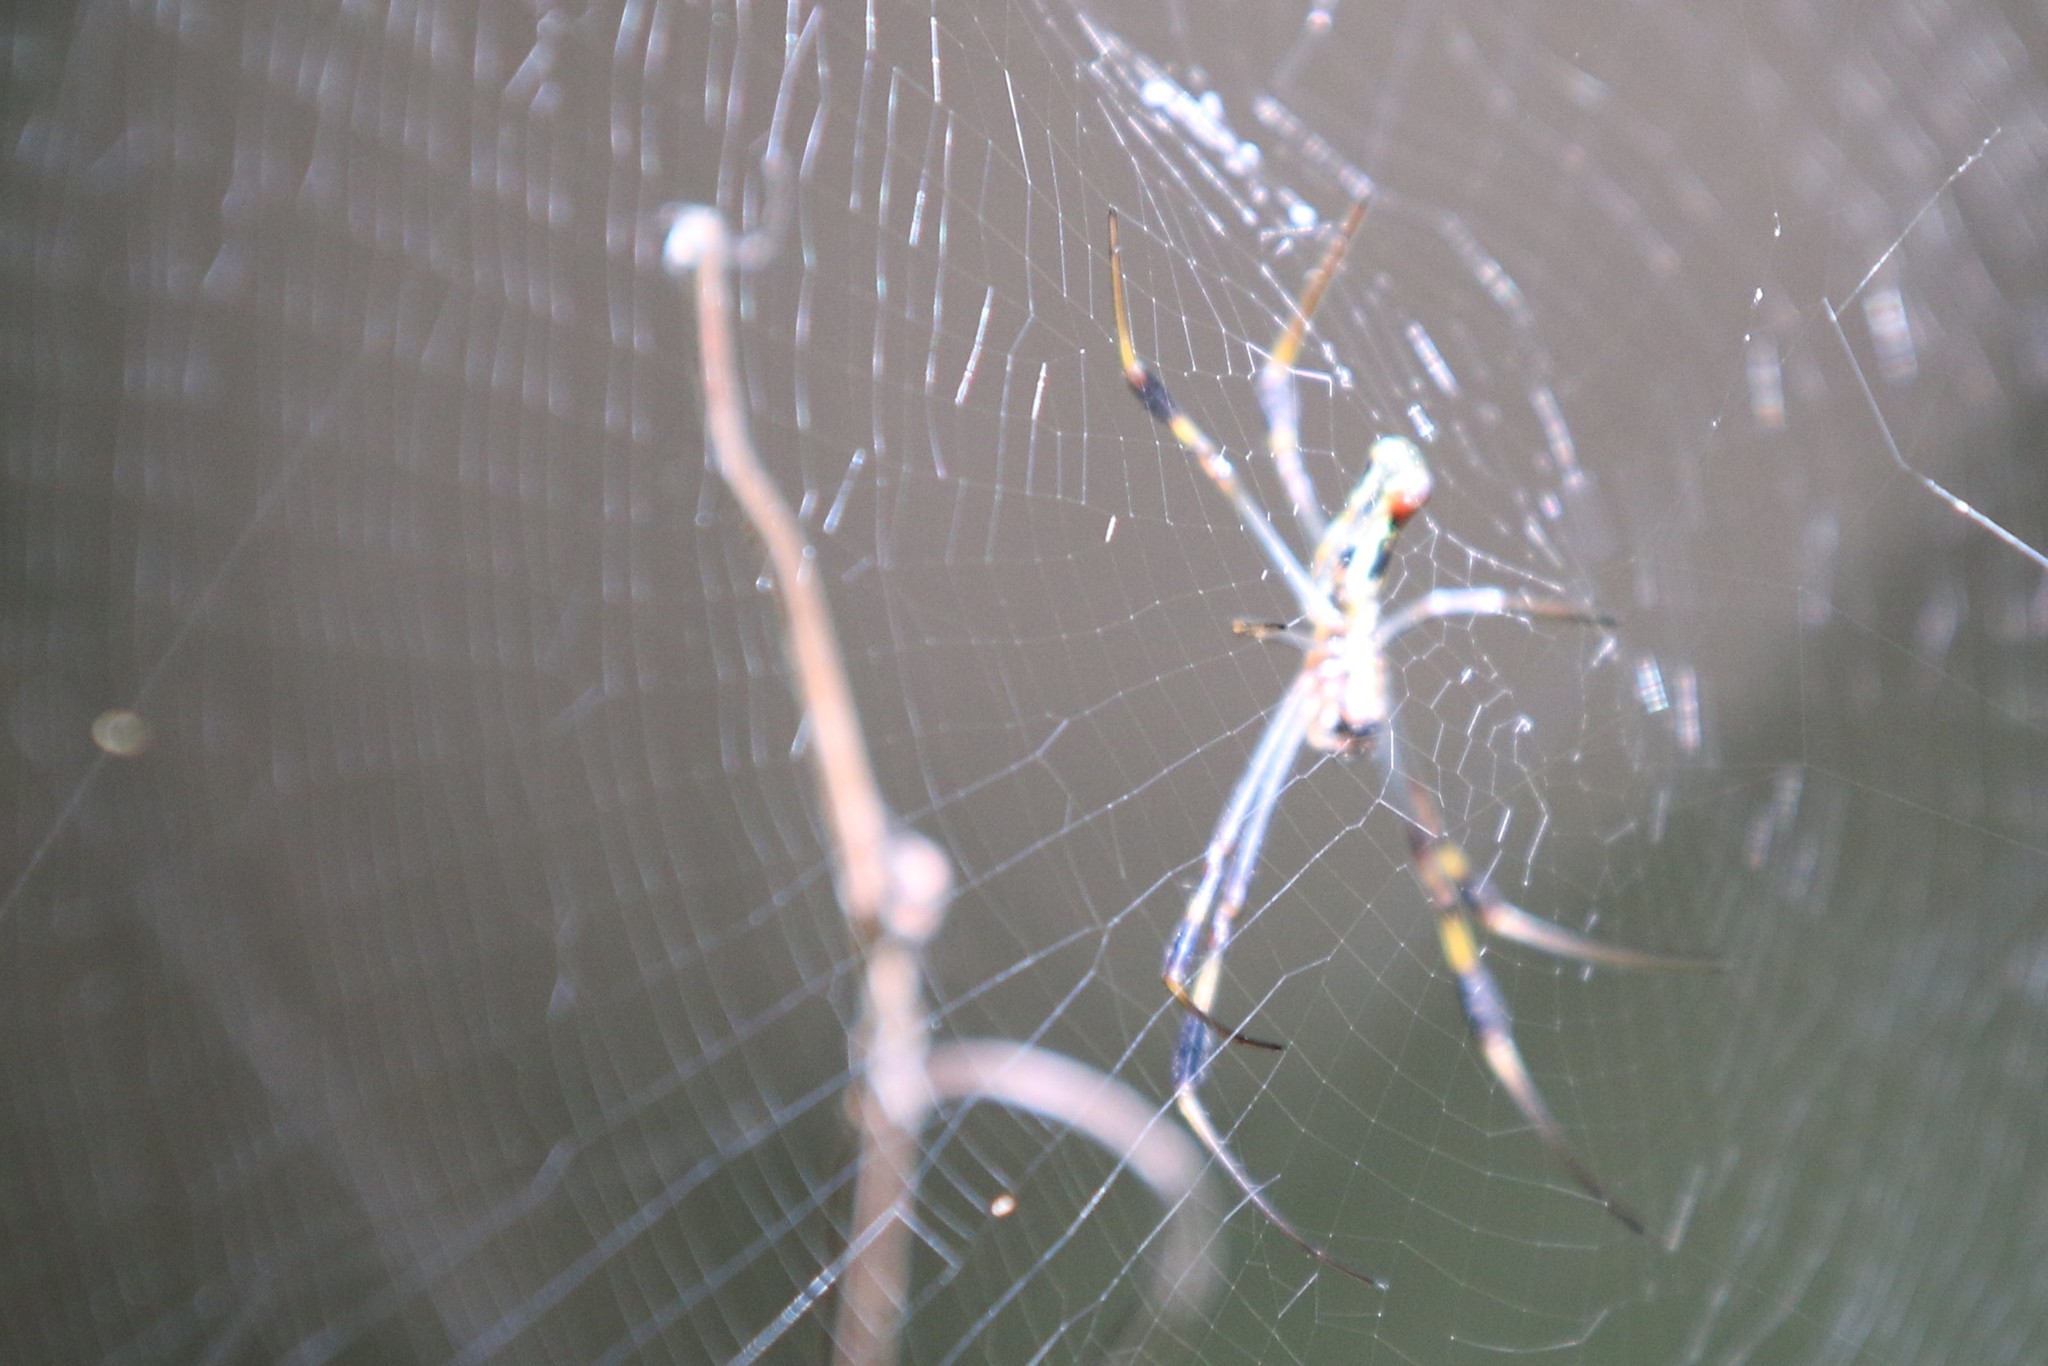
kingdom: Animalia
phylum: Arthropoda
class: Arachnida
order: Araneae
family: Araneidae
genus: Trichonephila
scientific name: Trichonephila clavipes
